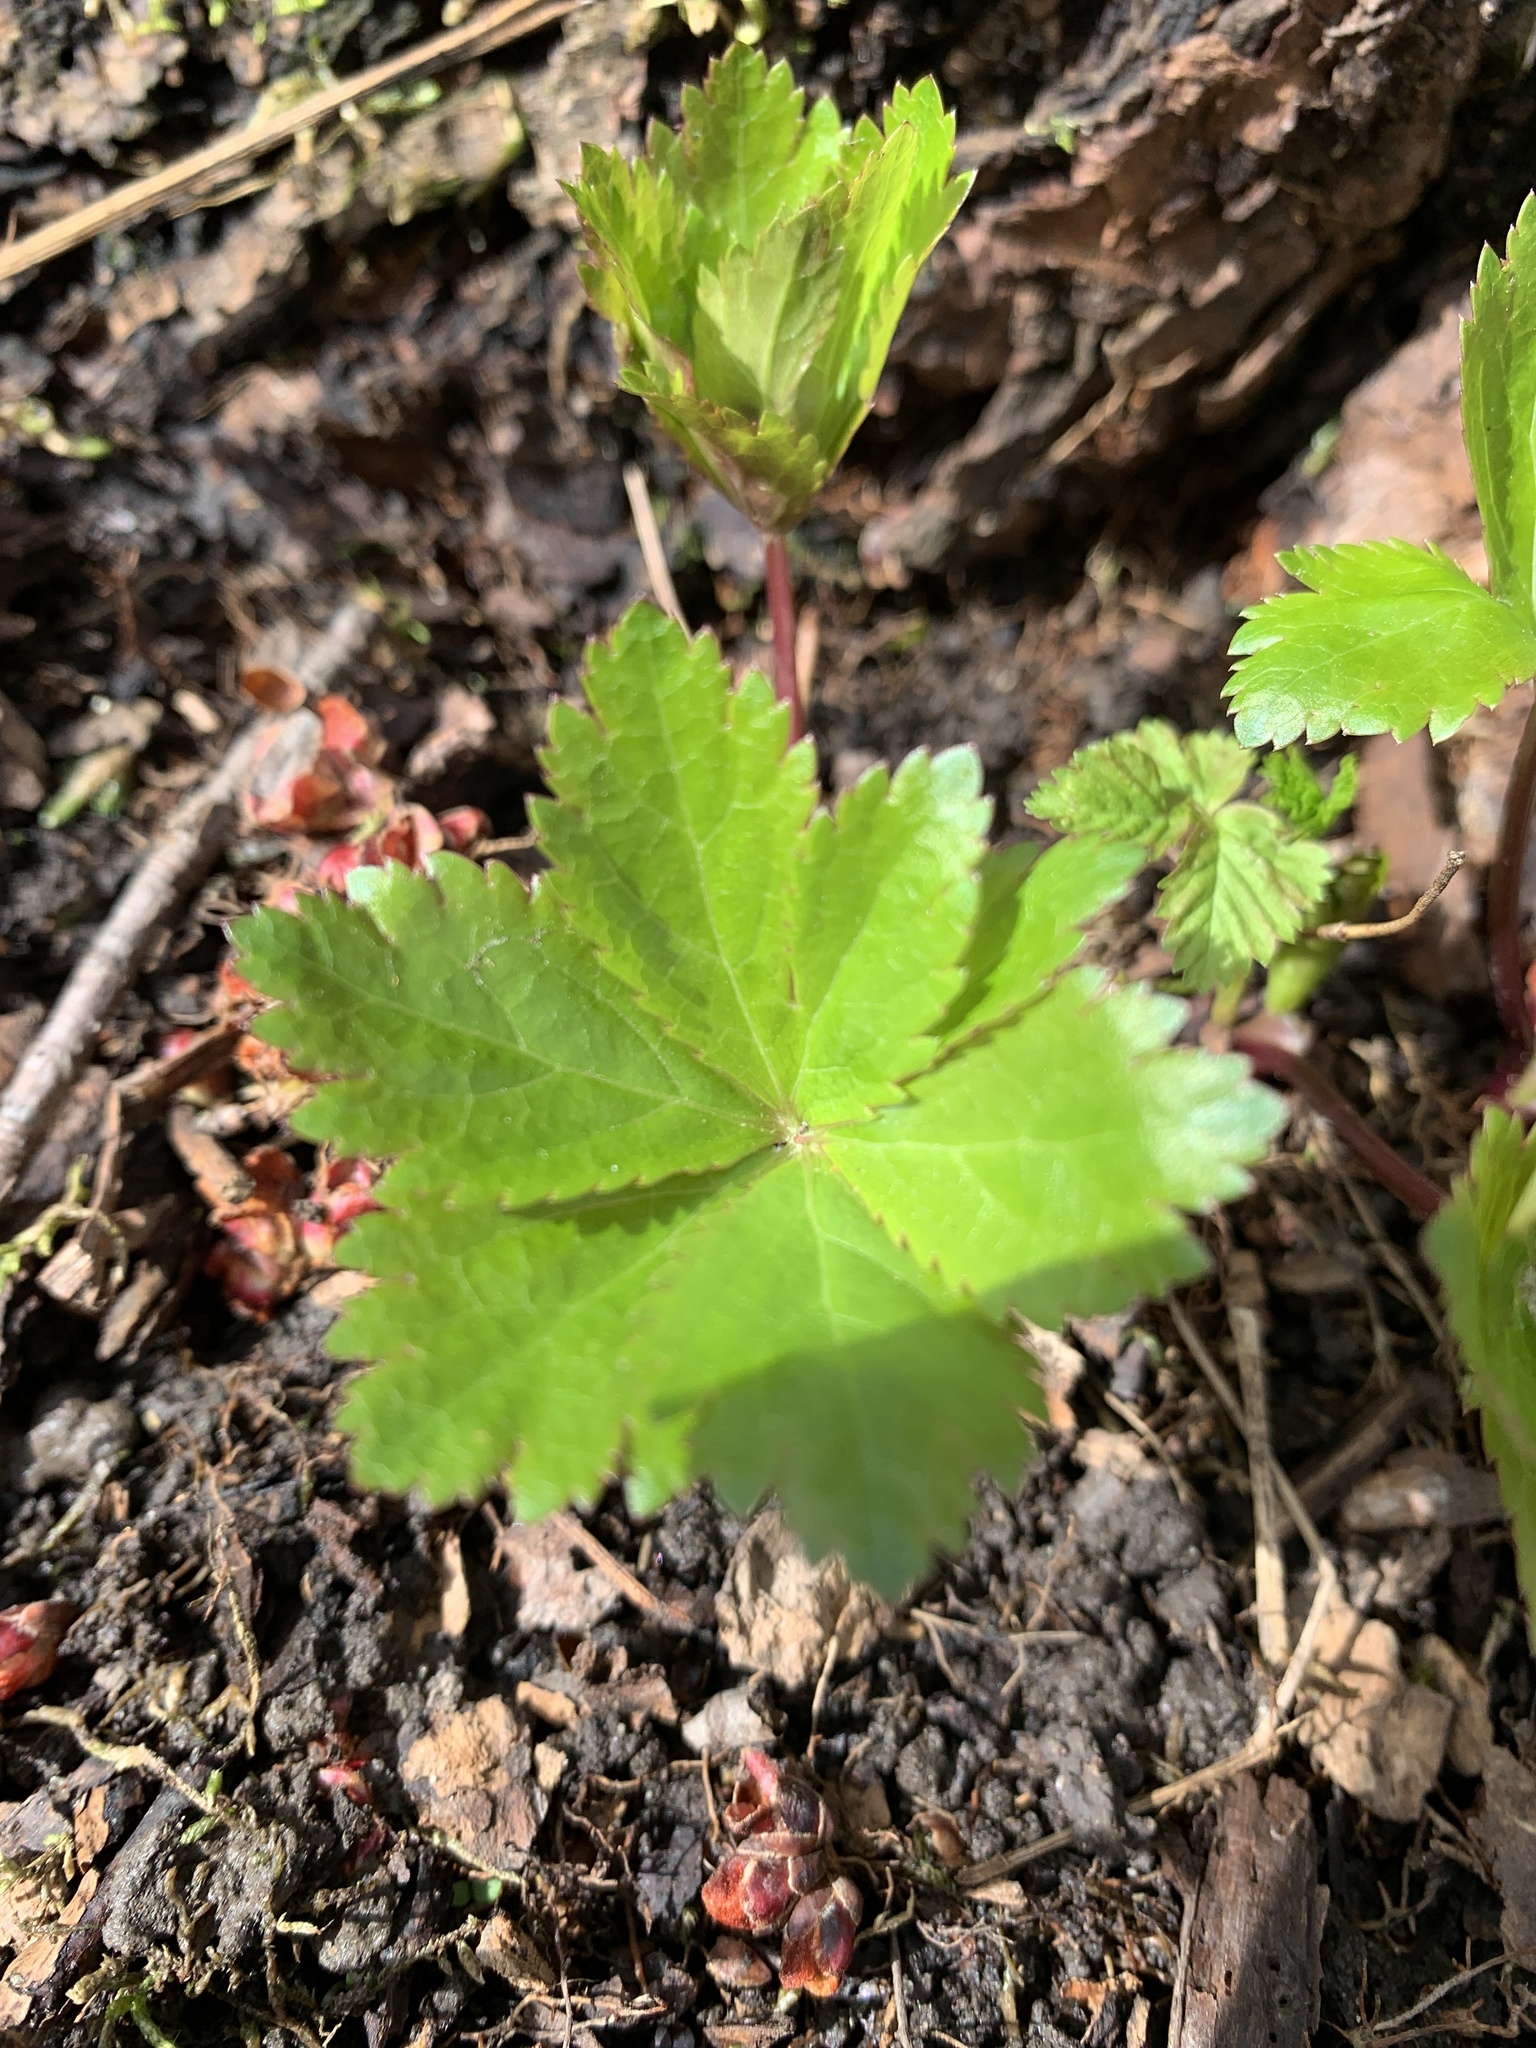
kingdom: Plantae
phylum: Tracheophyta
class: Magnoliopsida
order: Apiales
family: Apiaceae
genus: Sanicula
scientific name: Sanicula
